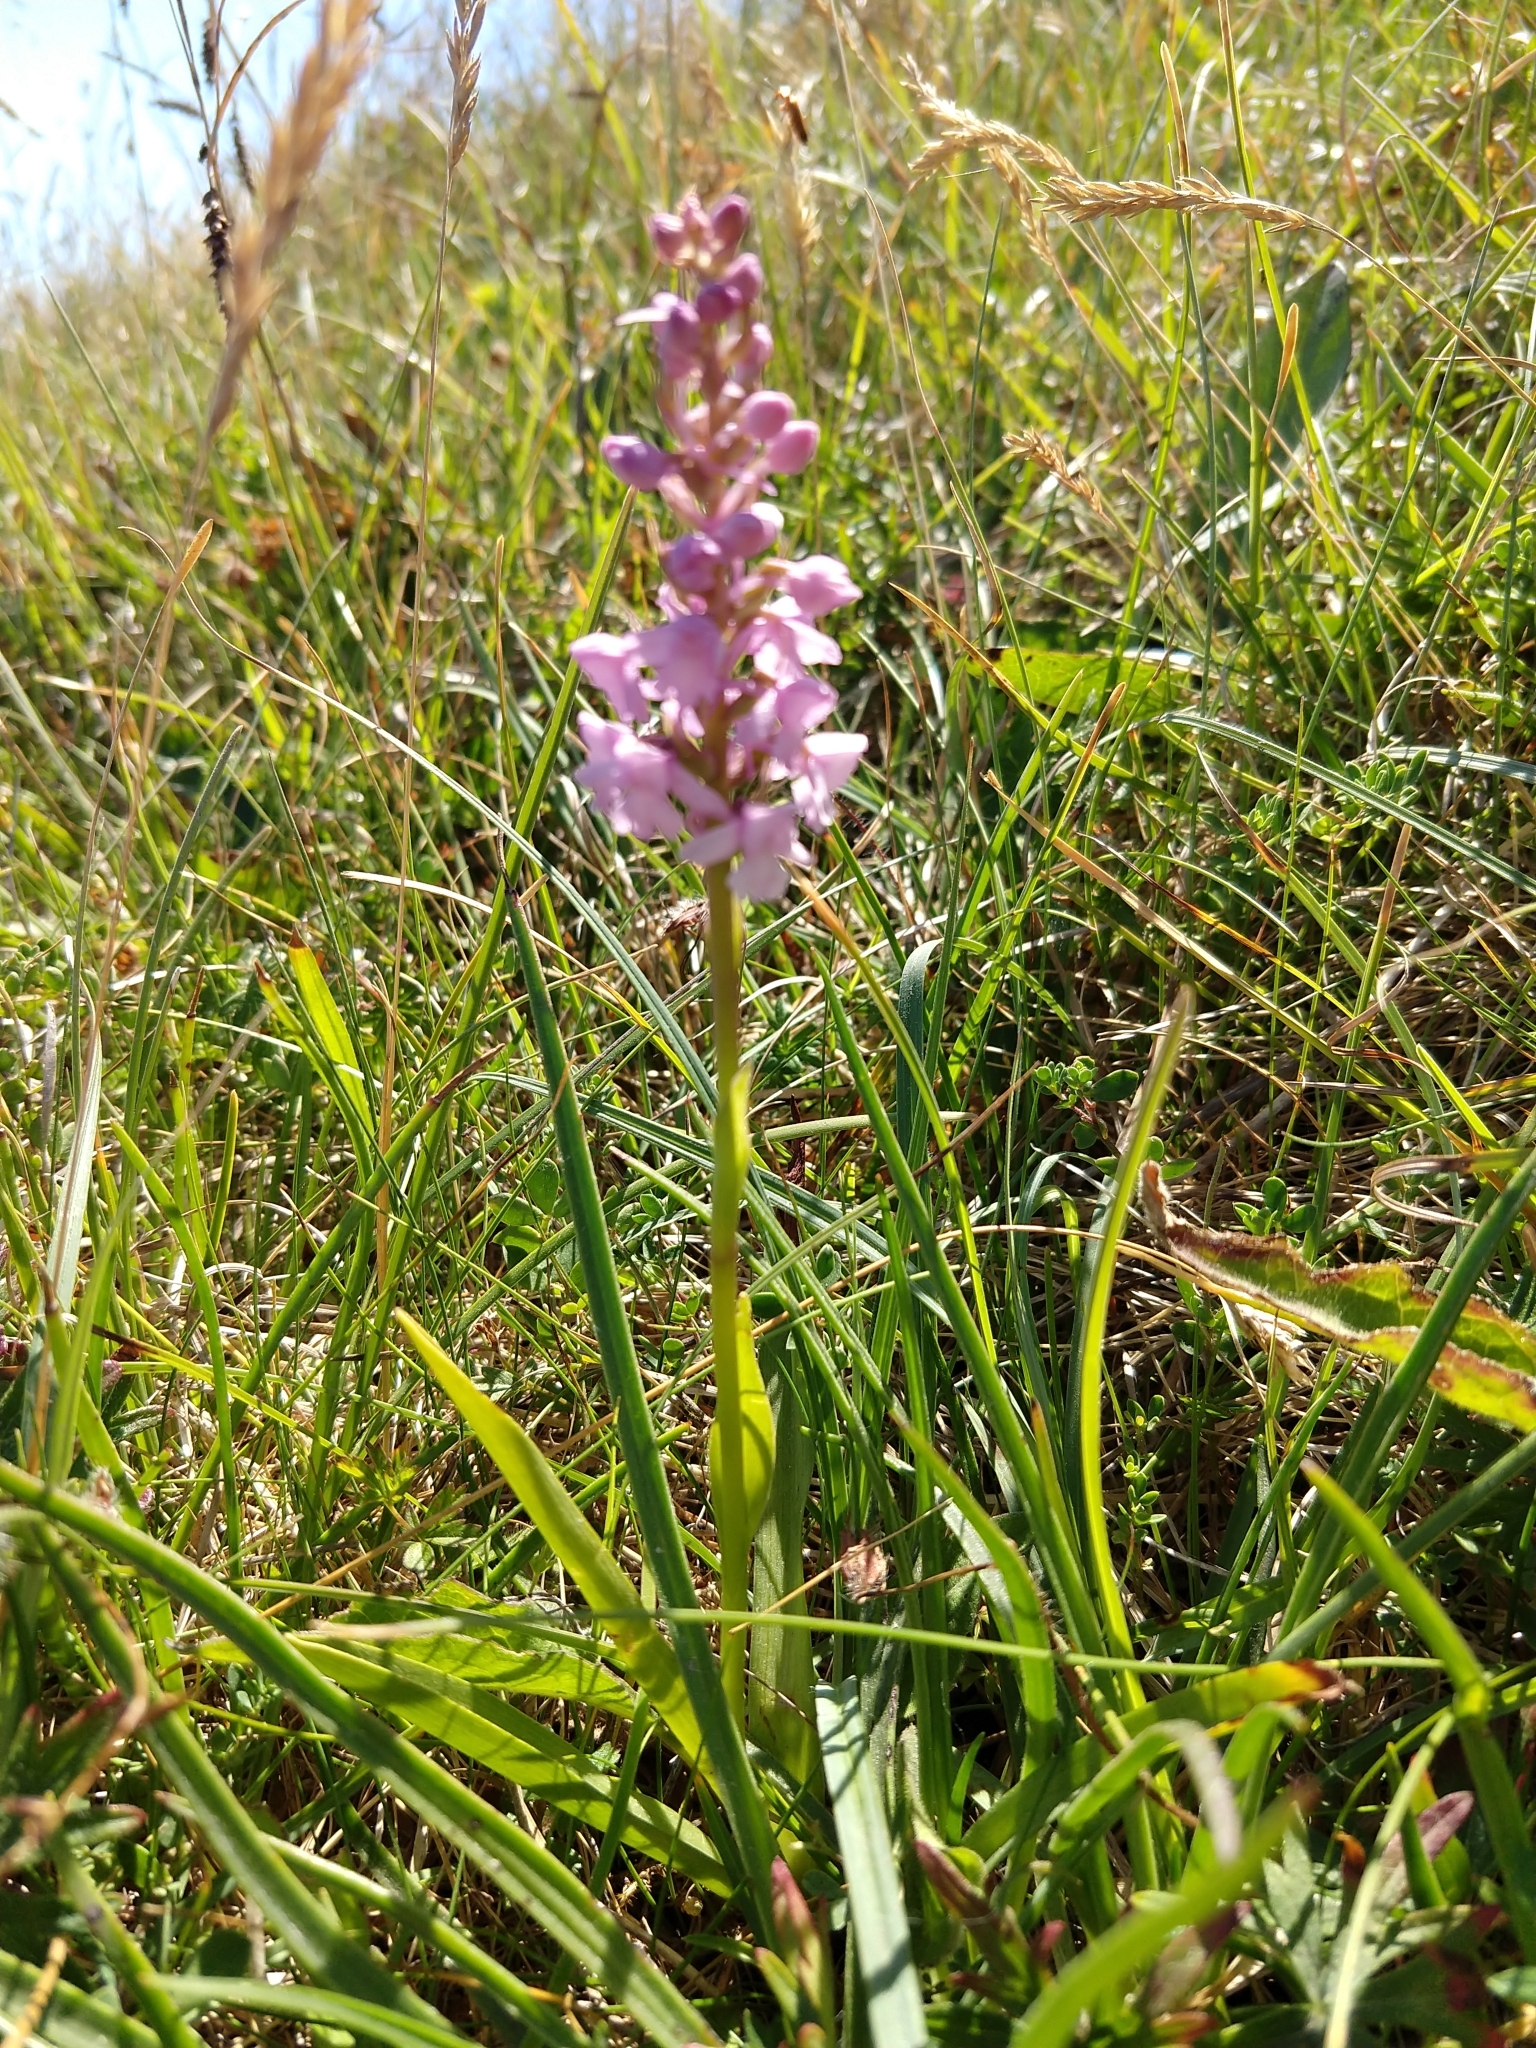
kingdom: Plantae
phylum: Tracheophyta
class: Liliopsida
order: Asparagales
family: Orchidaceae
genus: Gymnadenia
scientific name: Gymnadenia conopsea
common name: Fragrant orchid
